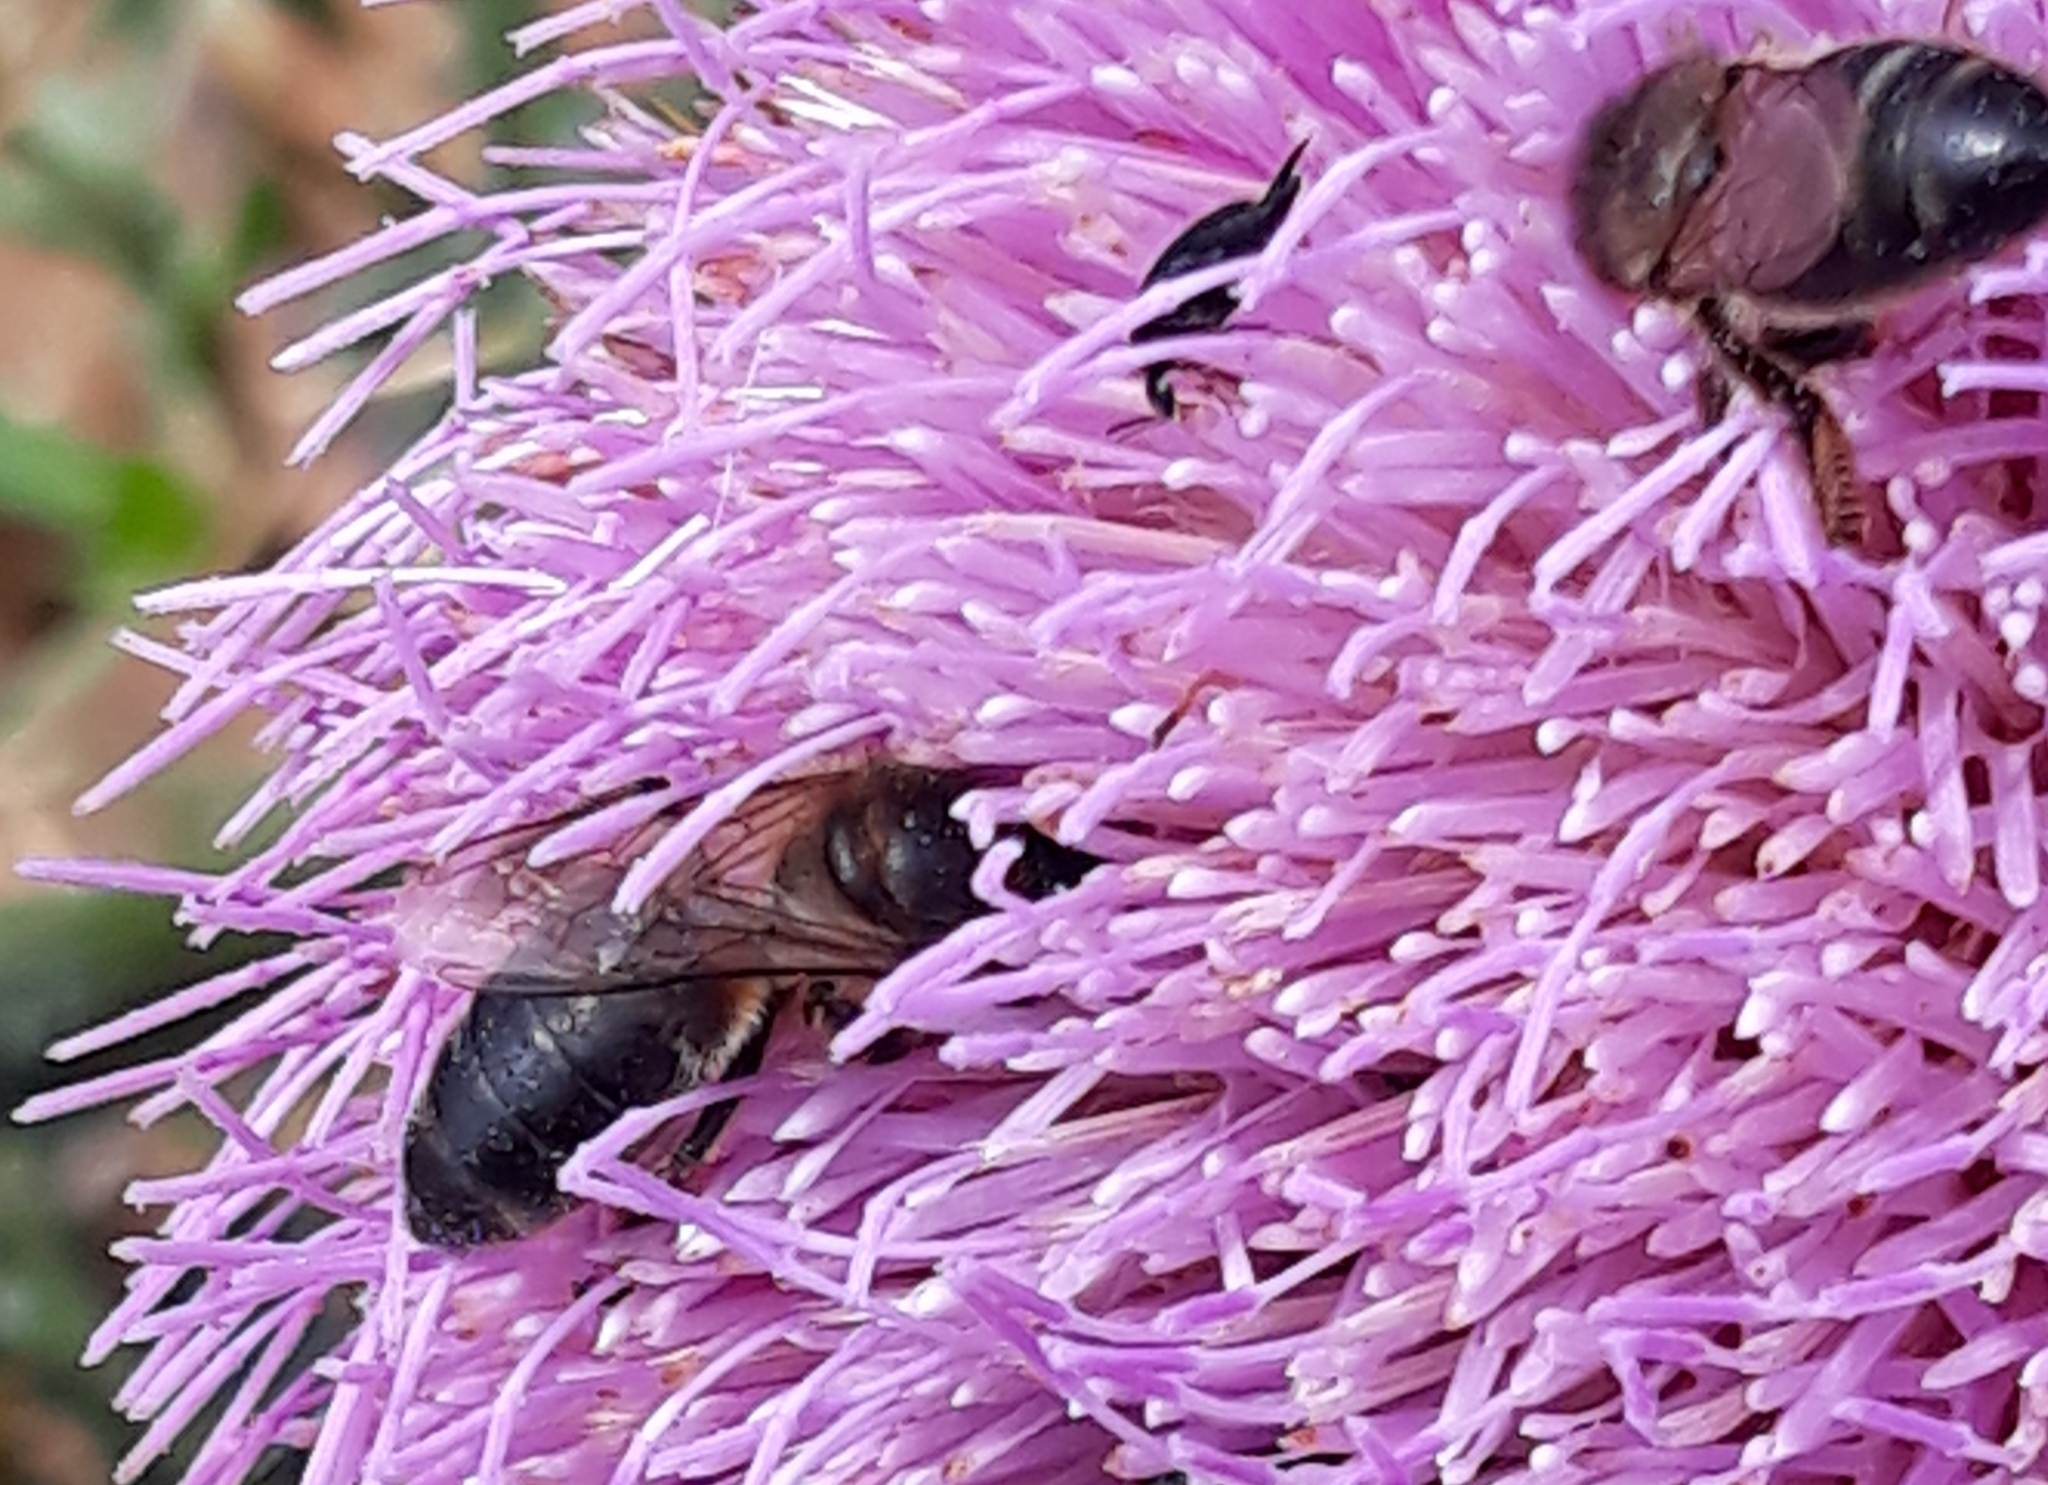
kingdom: Animalia
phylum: Arthropoda
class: Insecta
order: Hymenoptera
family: Apidae
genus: Apis
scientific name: Apis mellifera
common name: Honey bee
